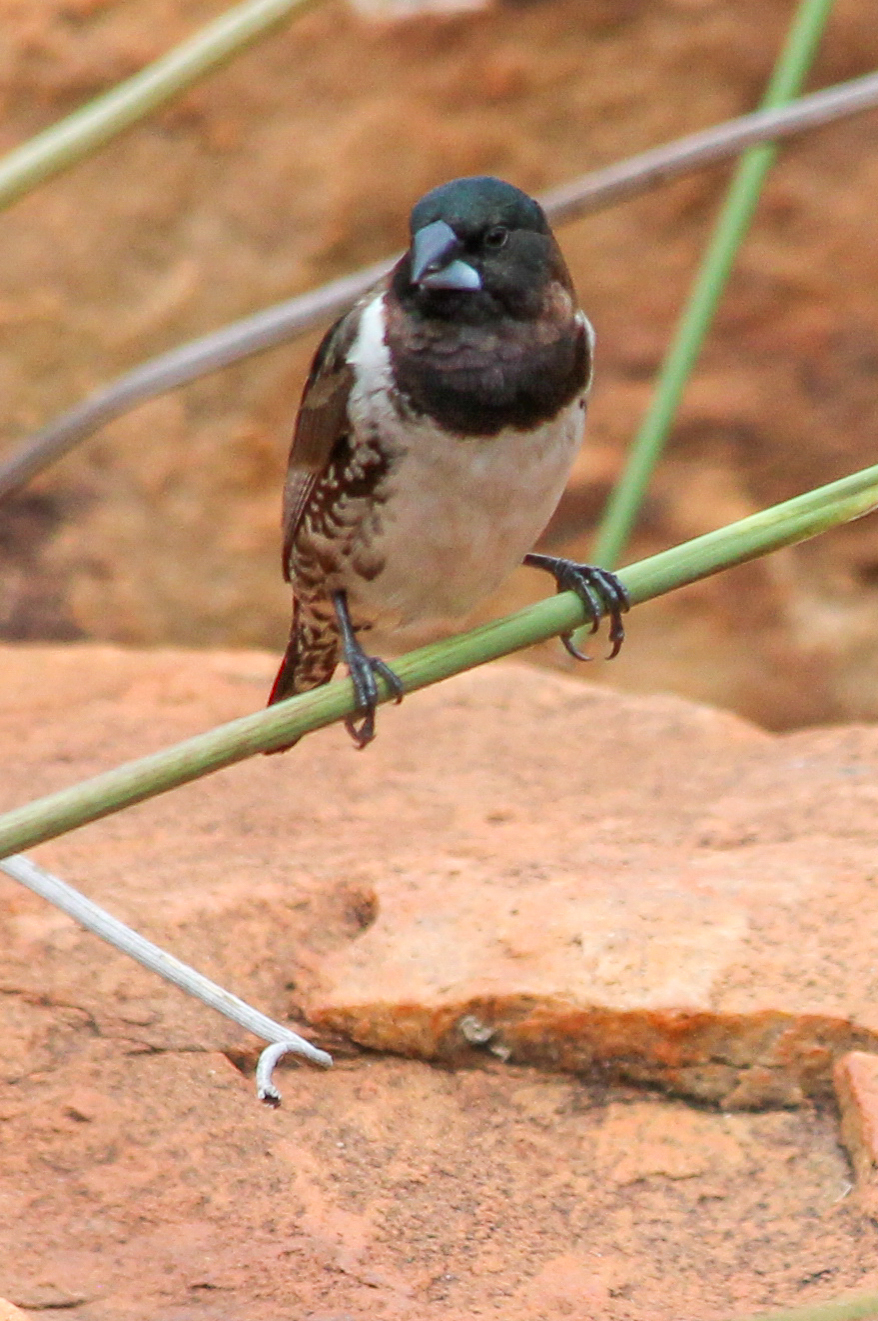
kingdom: Animalia
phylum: Chordata
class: Aves
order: Passeriformes
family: Estrildidae
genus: Lonchura
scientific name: Lonchura cucullata
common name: Bronze mannikin
